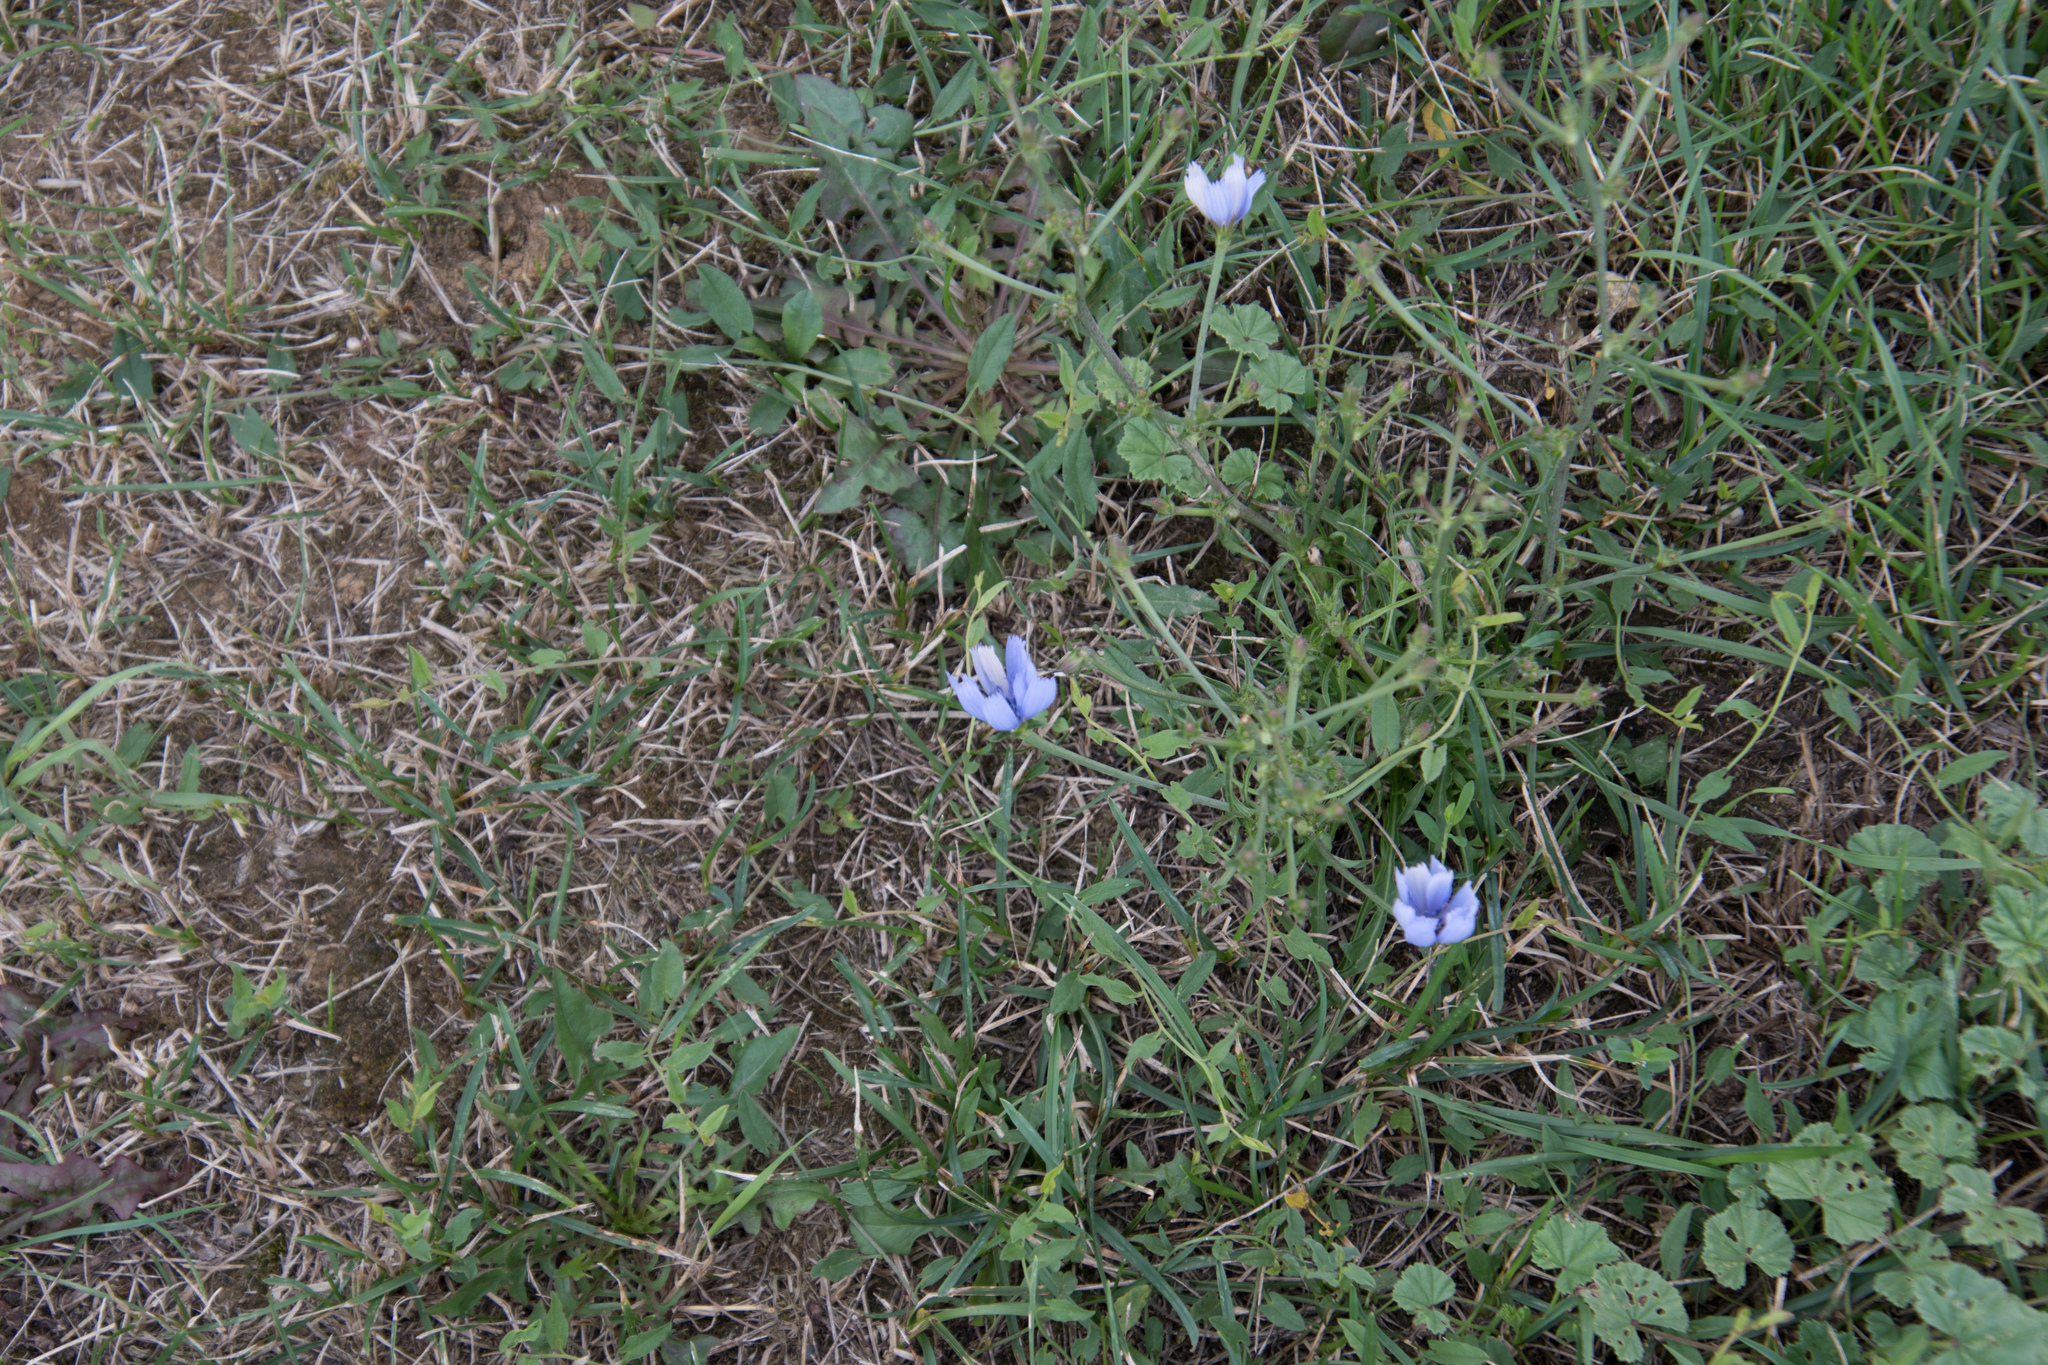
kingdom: Plantae
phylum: Tracheophyta
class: Magnoliopsida
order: Asterales
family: Asteraceae
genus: Cichorium
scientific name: Cichorium intybus
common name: Chicory
